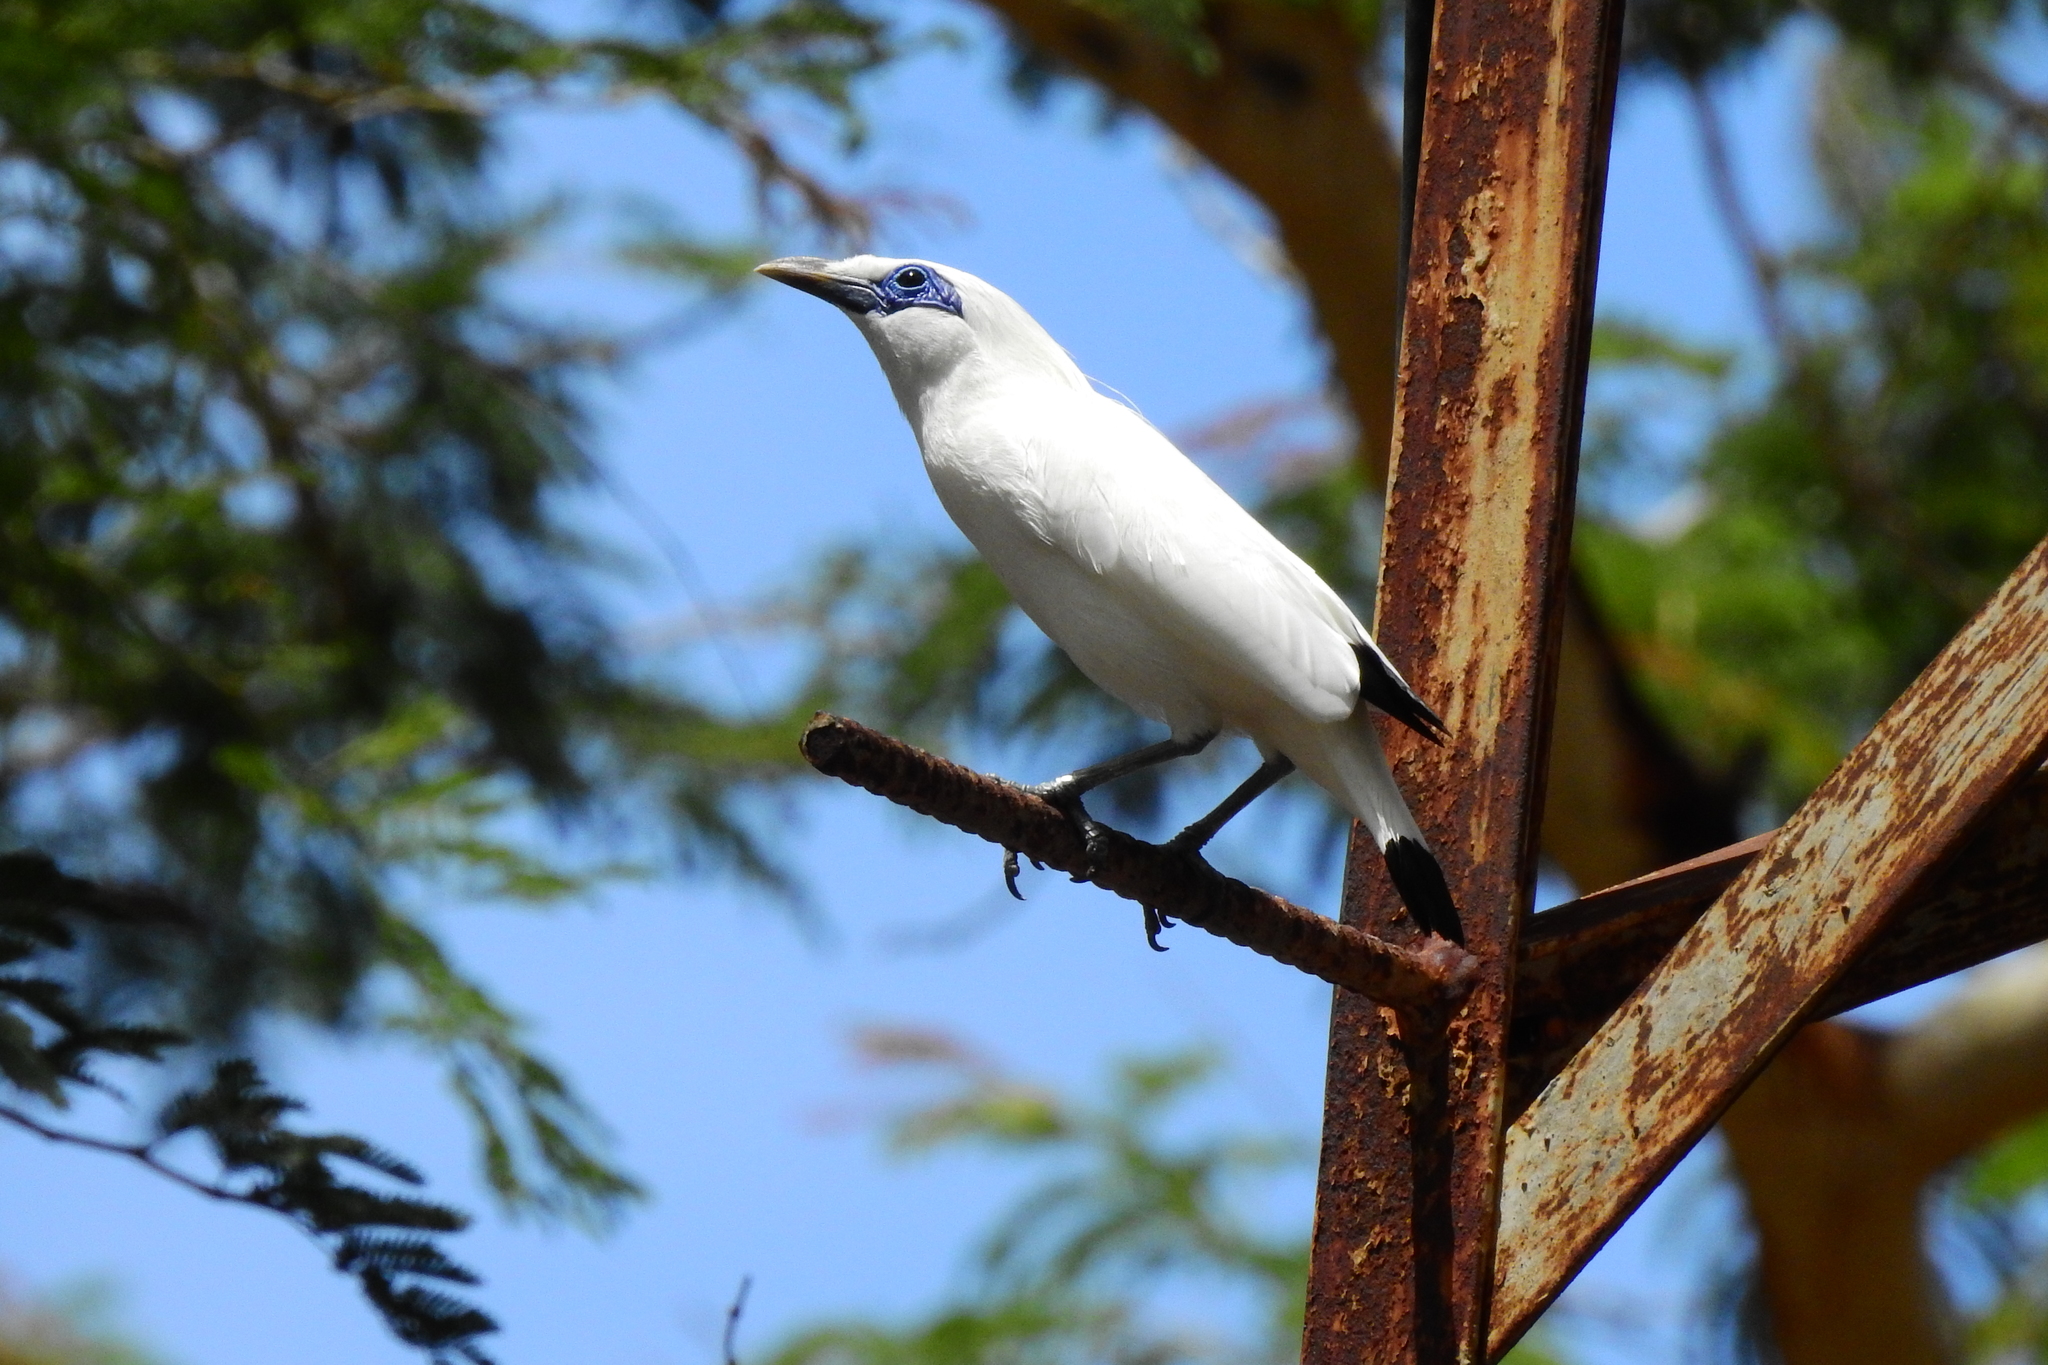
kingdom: Animalia
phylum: Chordata
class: Aves
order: Passeriformes
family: Sturnidae
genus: Leucopsar
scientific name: Leucopsar rothschildi
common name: Bali myna
